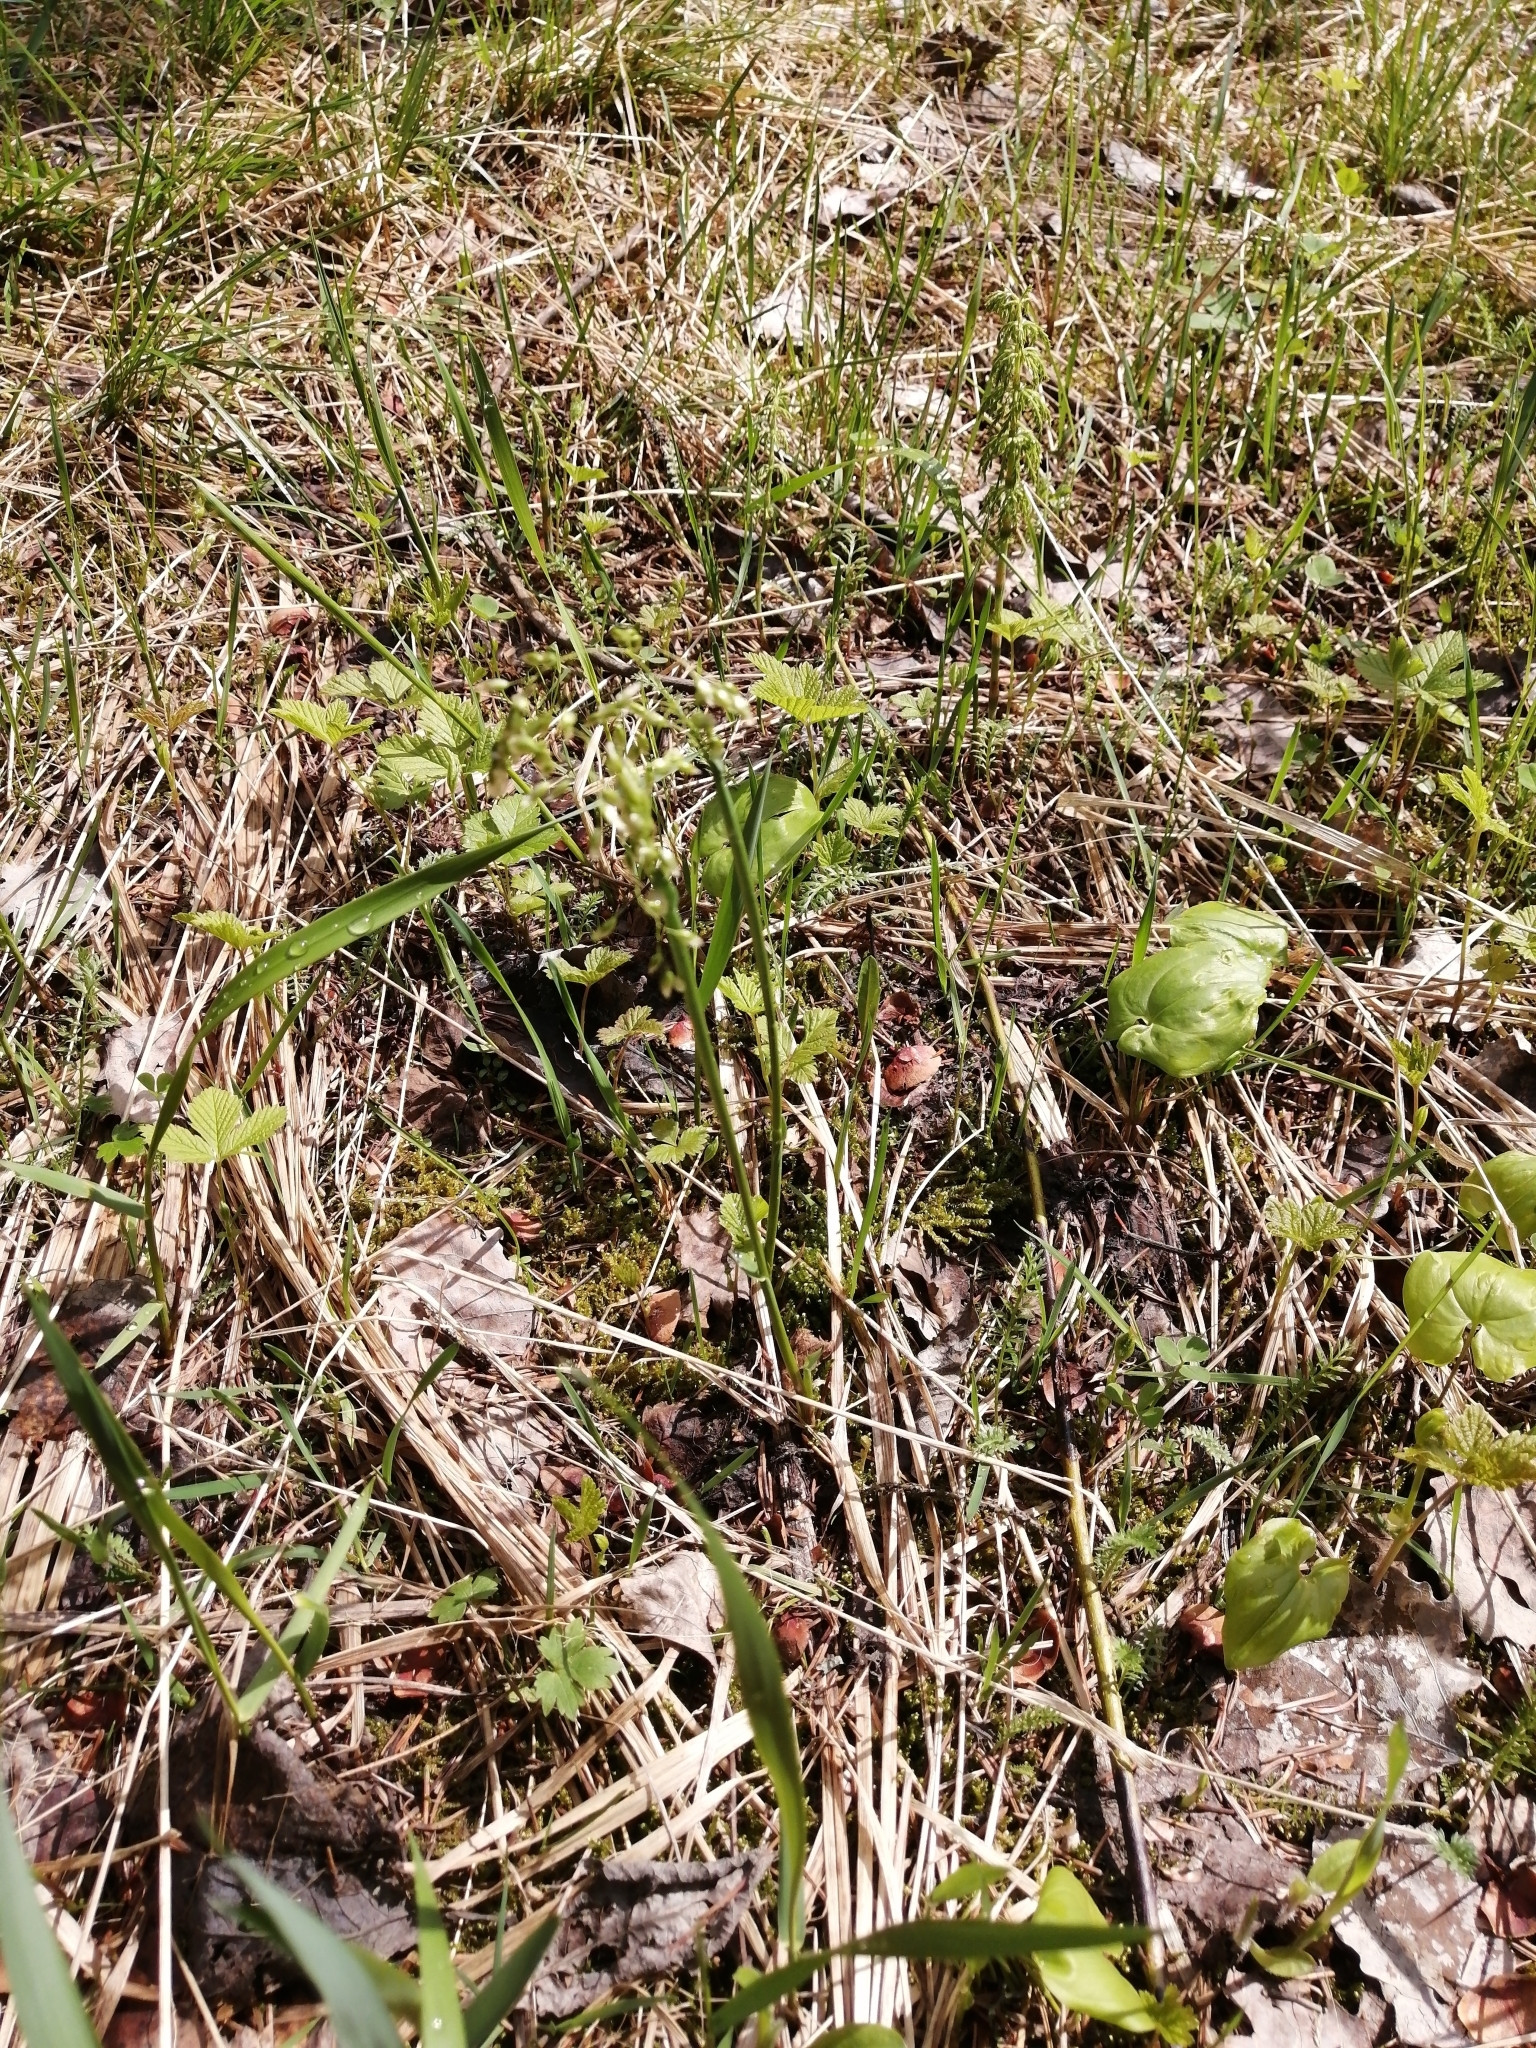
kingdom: Plantae
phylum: Tracheophyta
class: Liliopsida
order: Asparagales
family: Asparagaceae
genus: Maianthemum
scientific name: Maianthemum bifolium
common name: May lily
